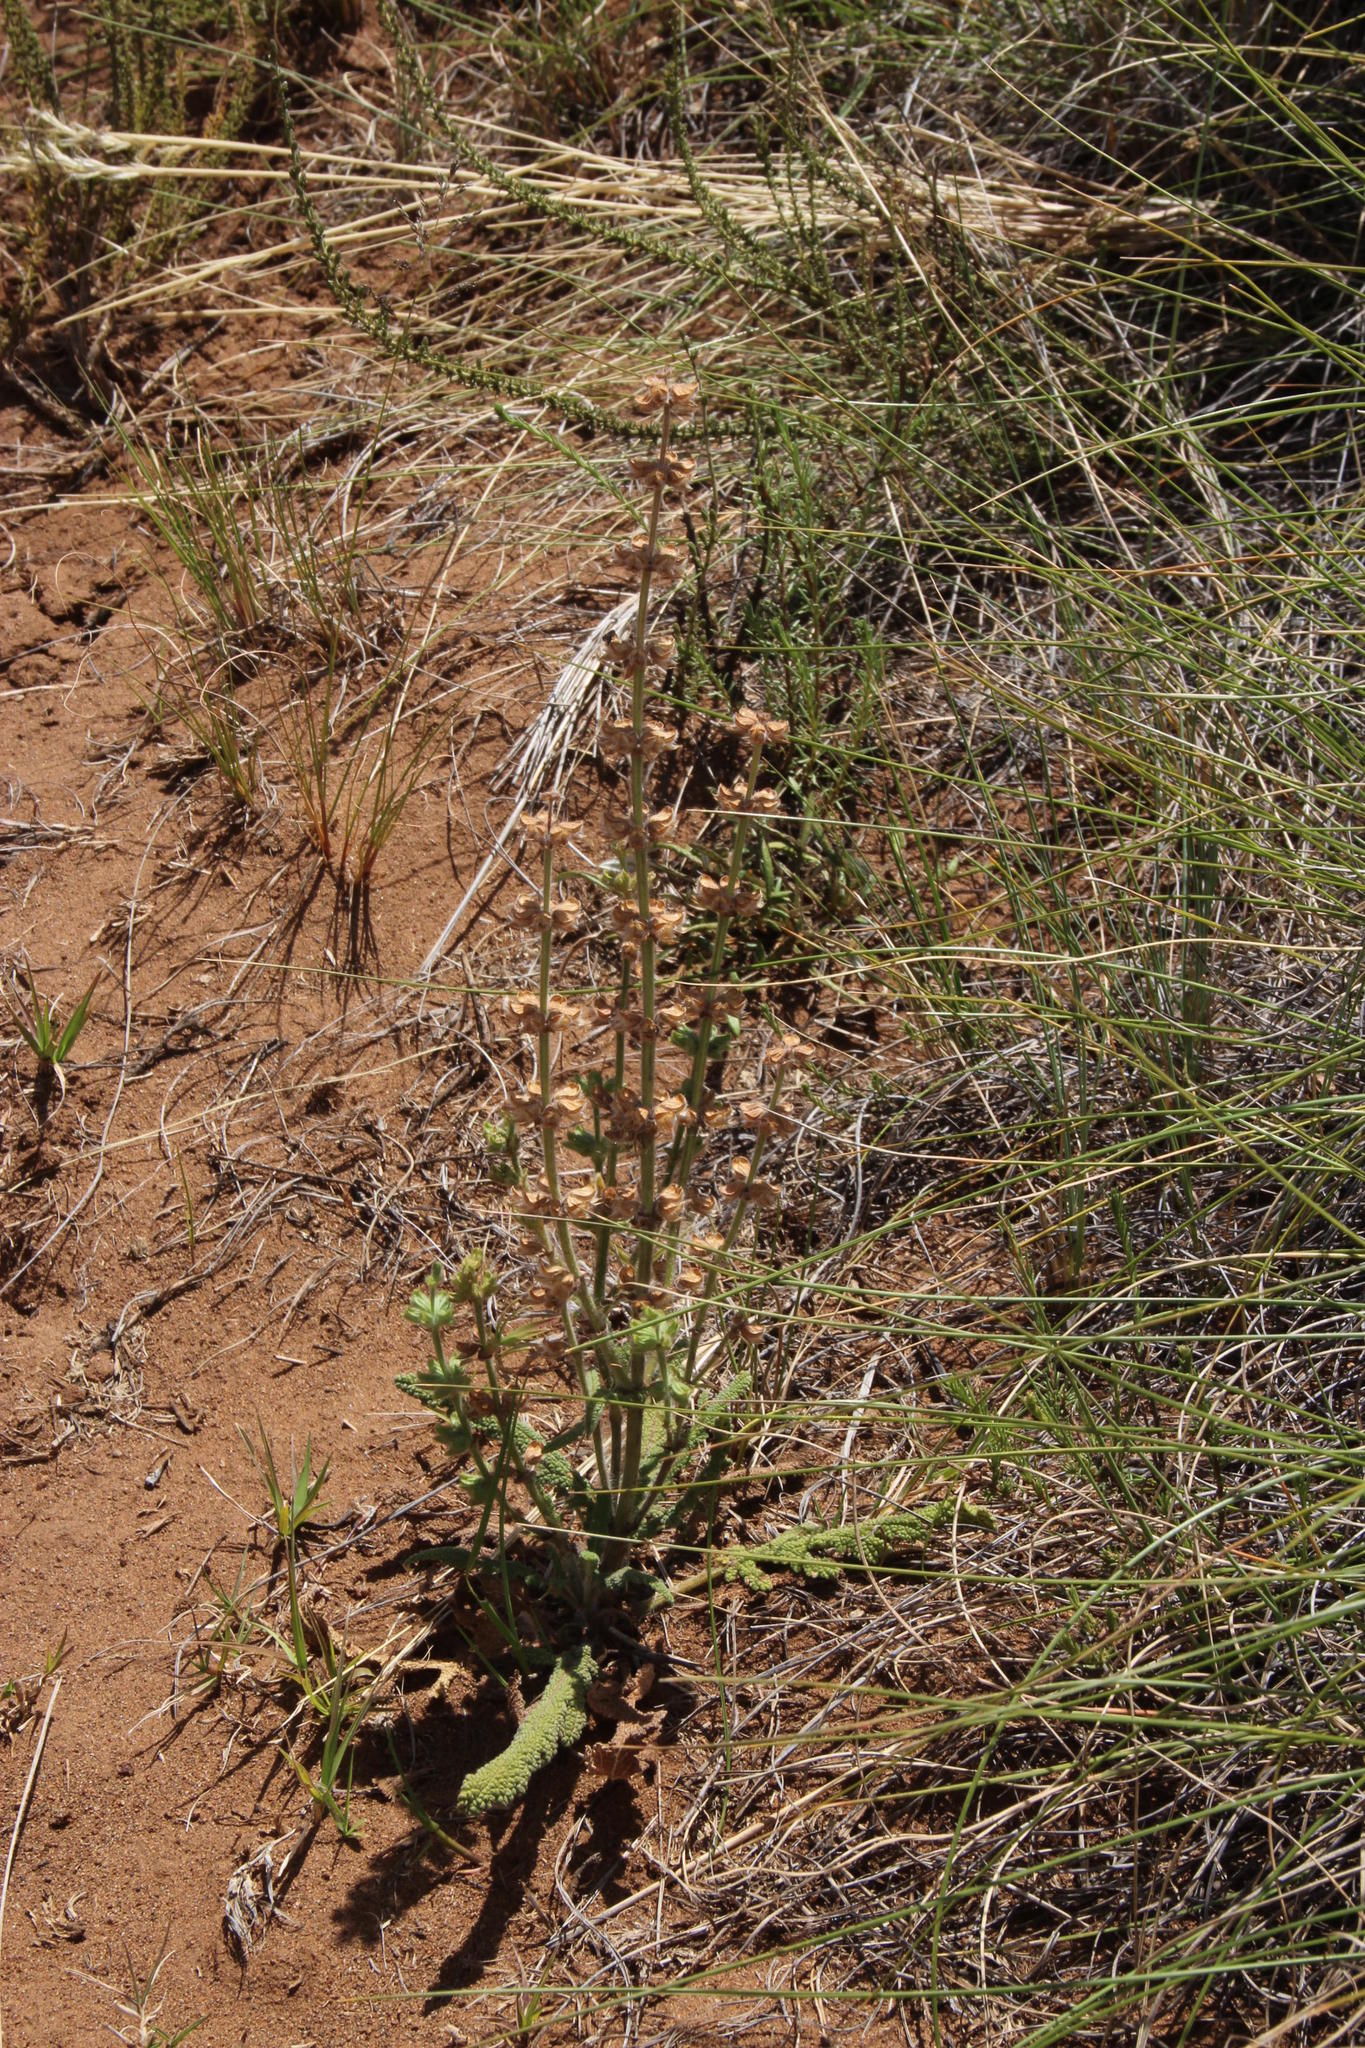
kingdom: Plantae
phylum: Tracheophyta
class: Magnoliopsida
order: Lamiales
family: Lamiaceae
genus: Salvia
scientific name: Salvia verbenaca
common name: Wild clary
